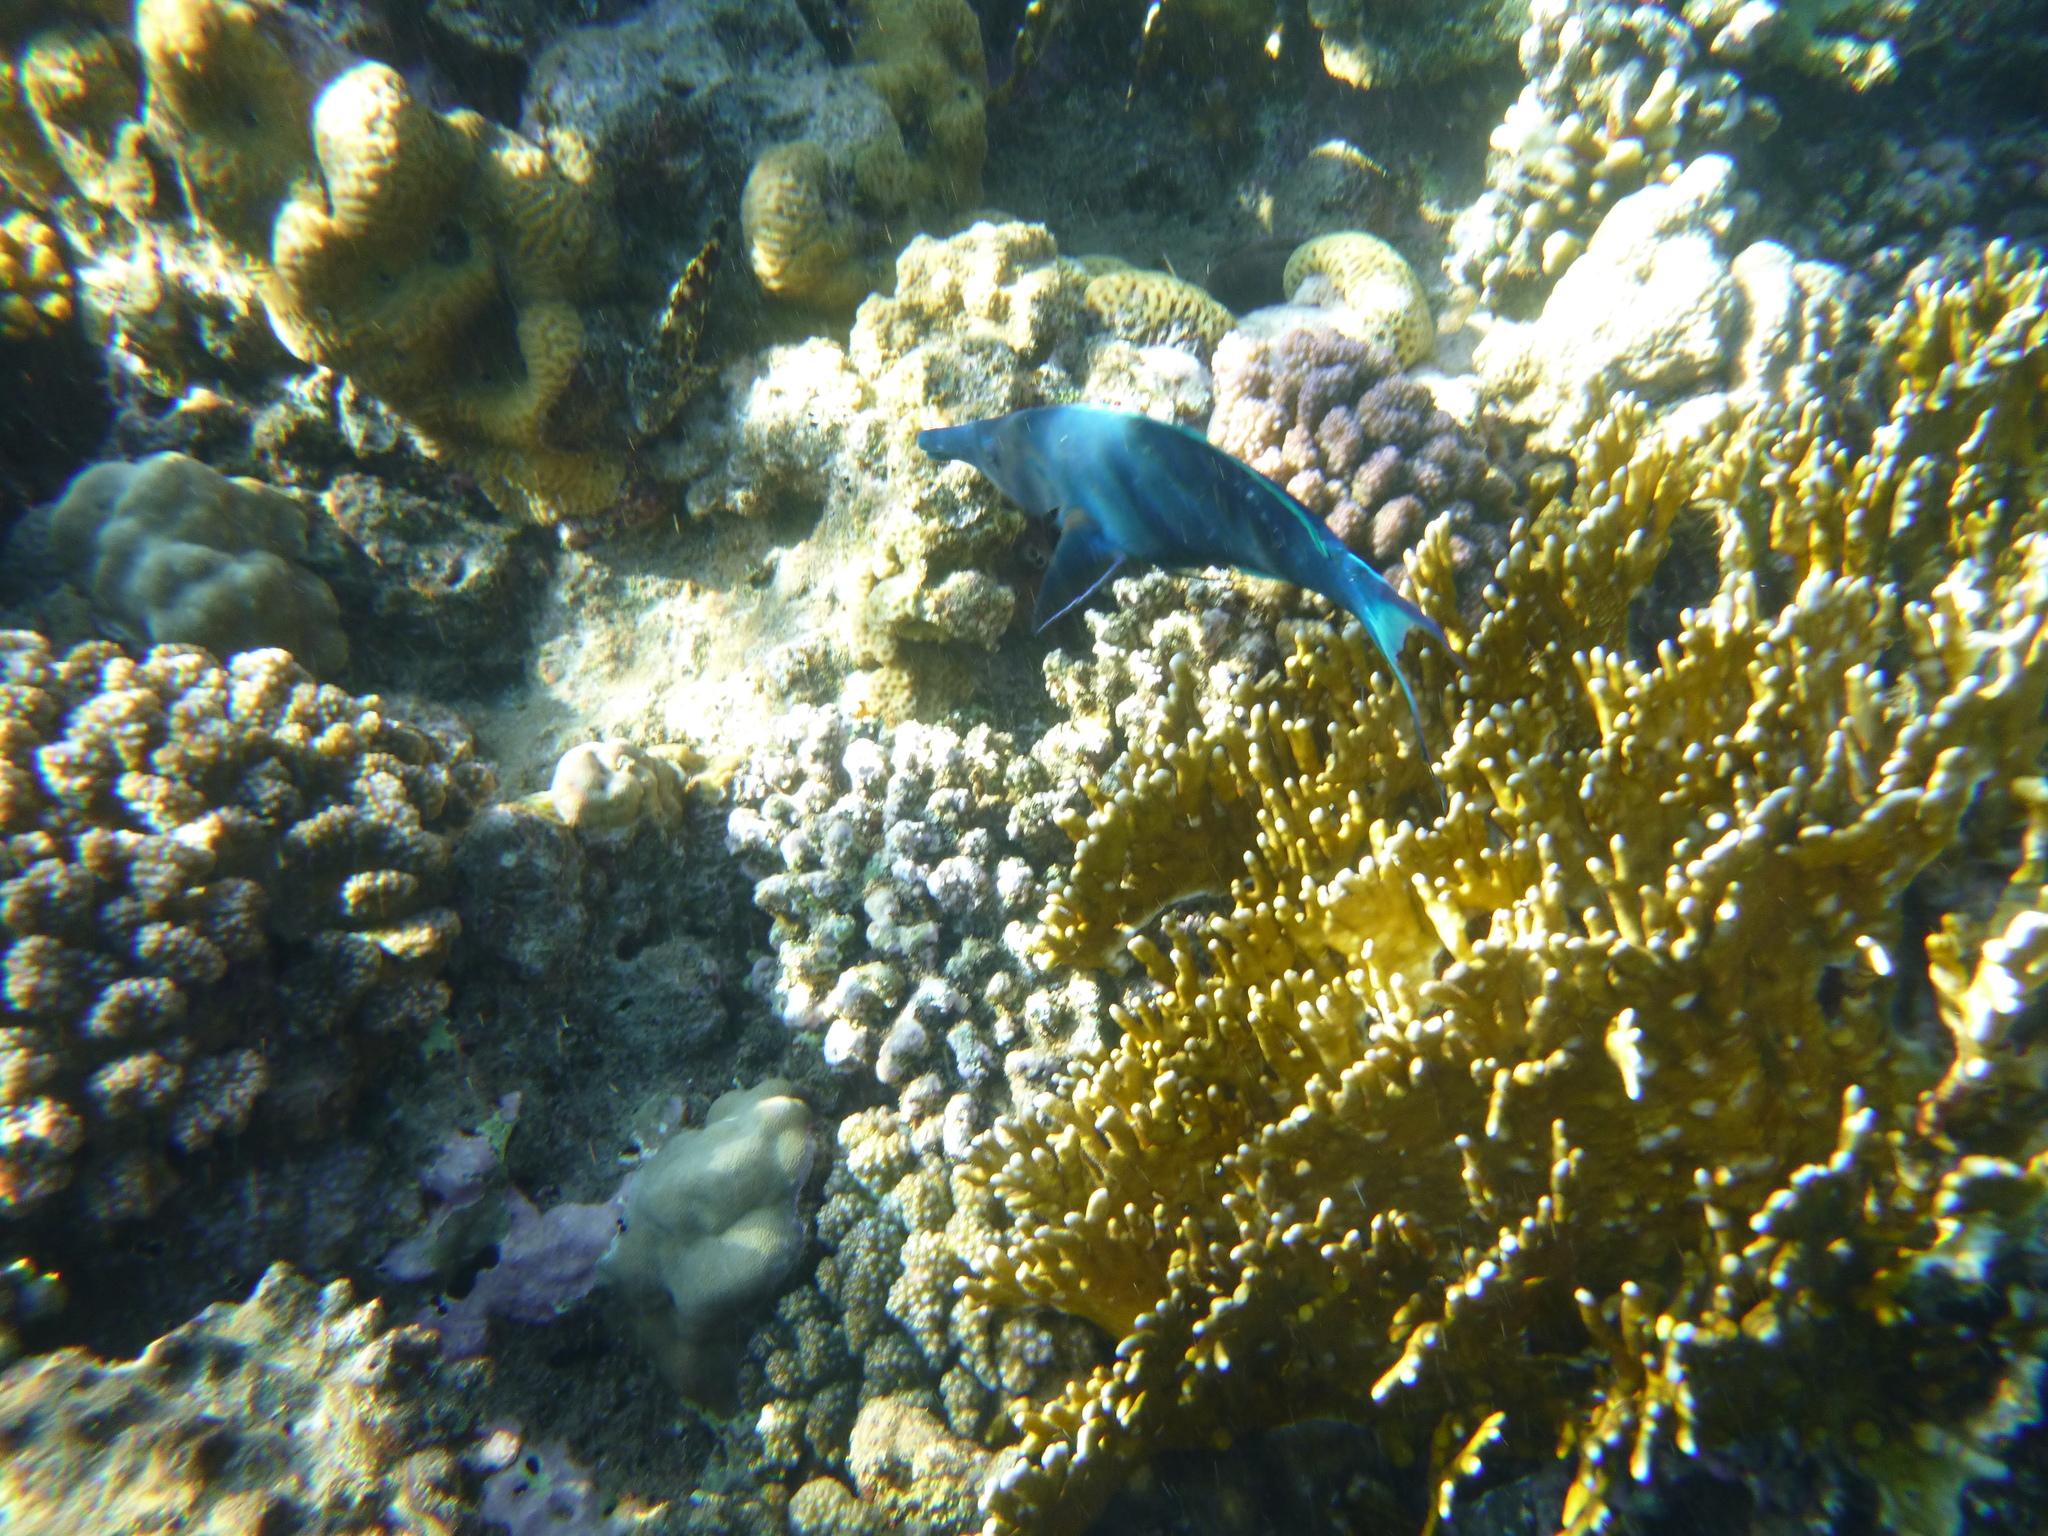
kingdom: Animalia
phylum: Chordata
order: Perciformes
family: Labridae
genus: Gomphosus
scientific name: Gomphosus klunzingeri
